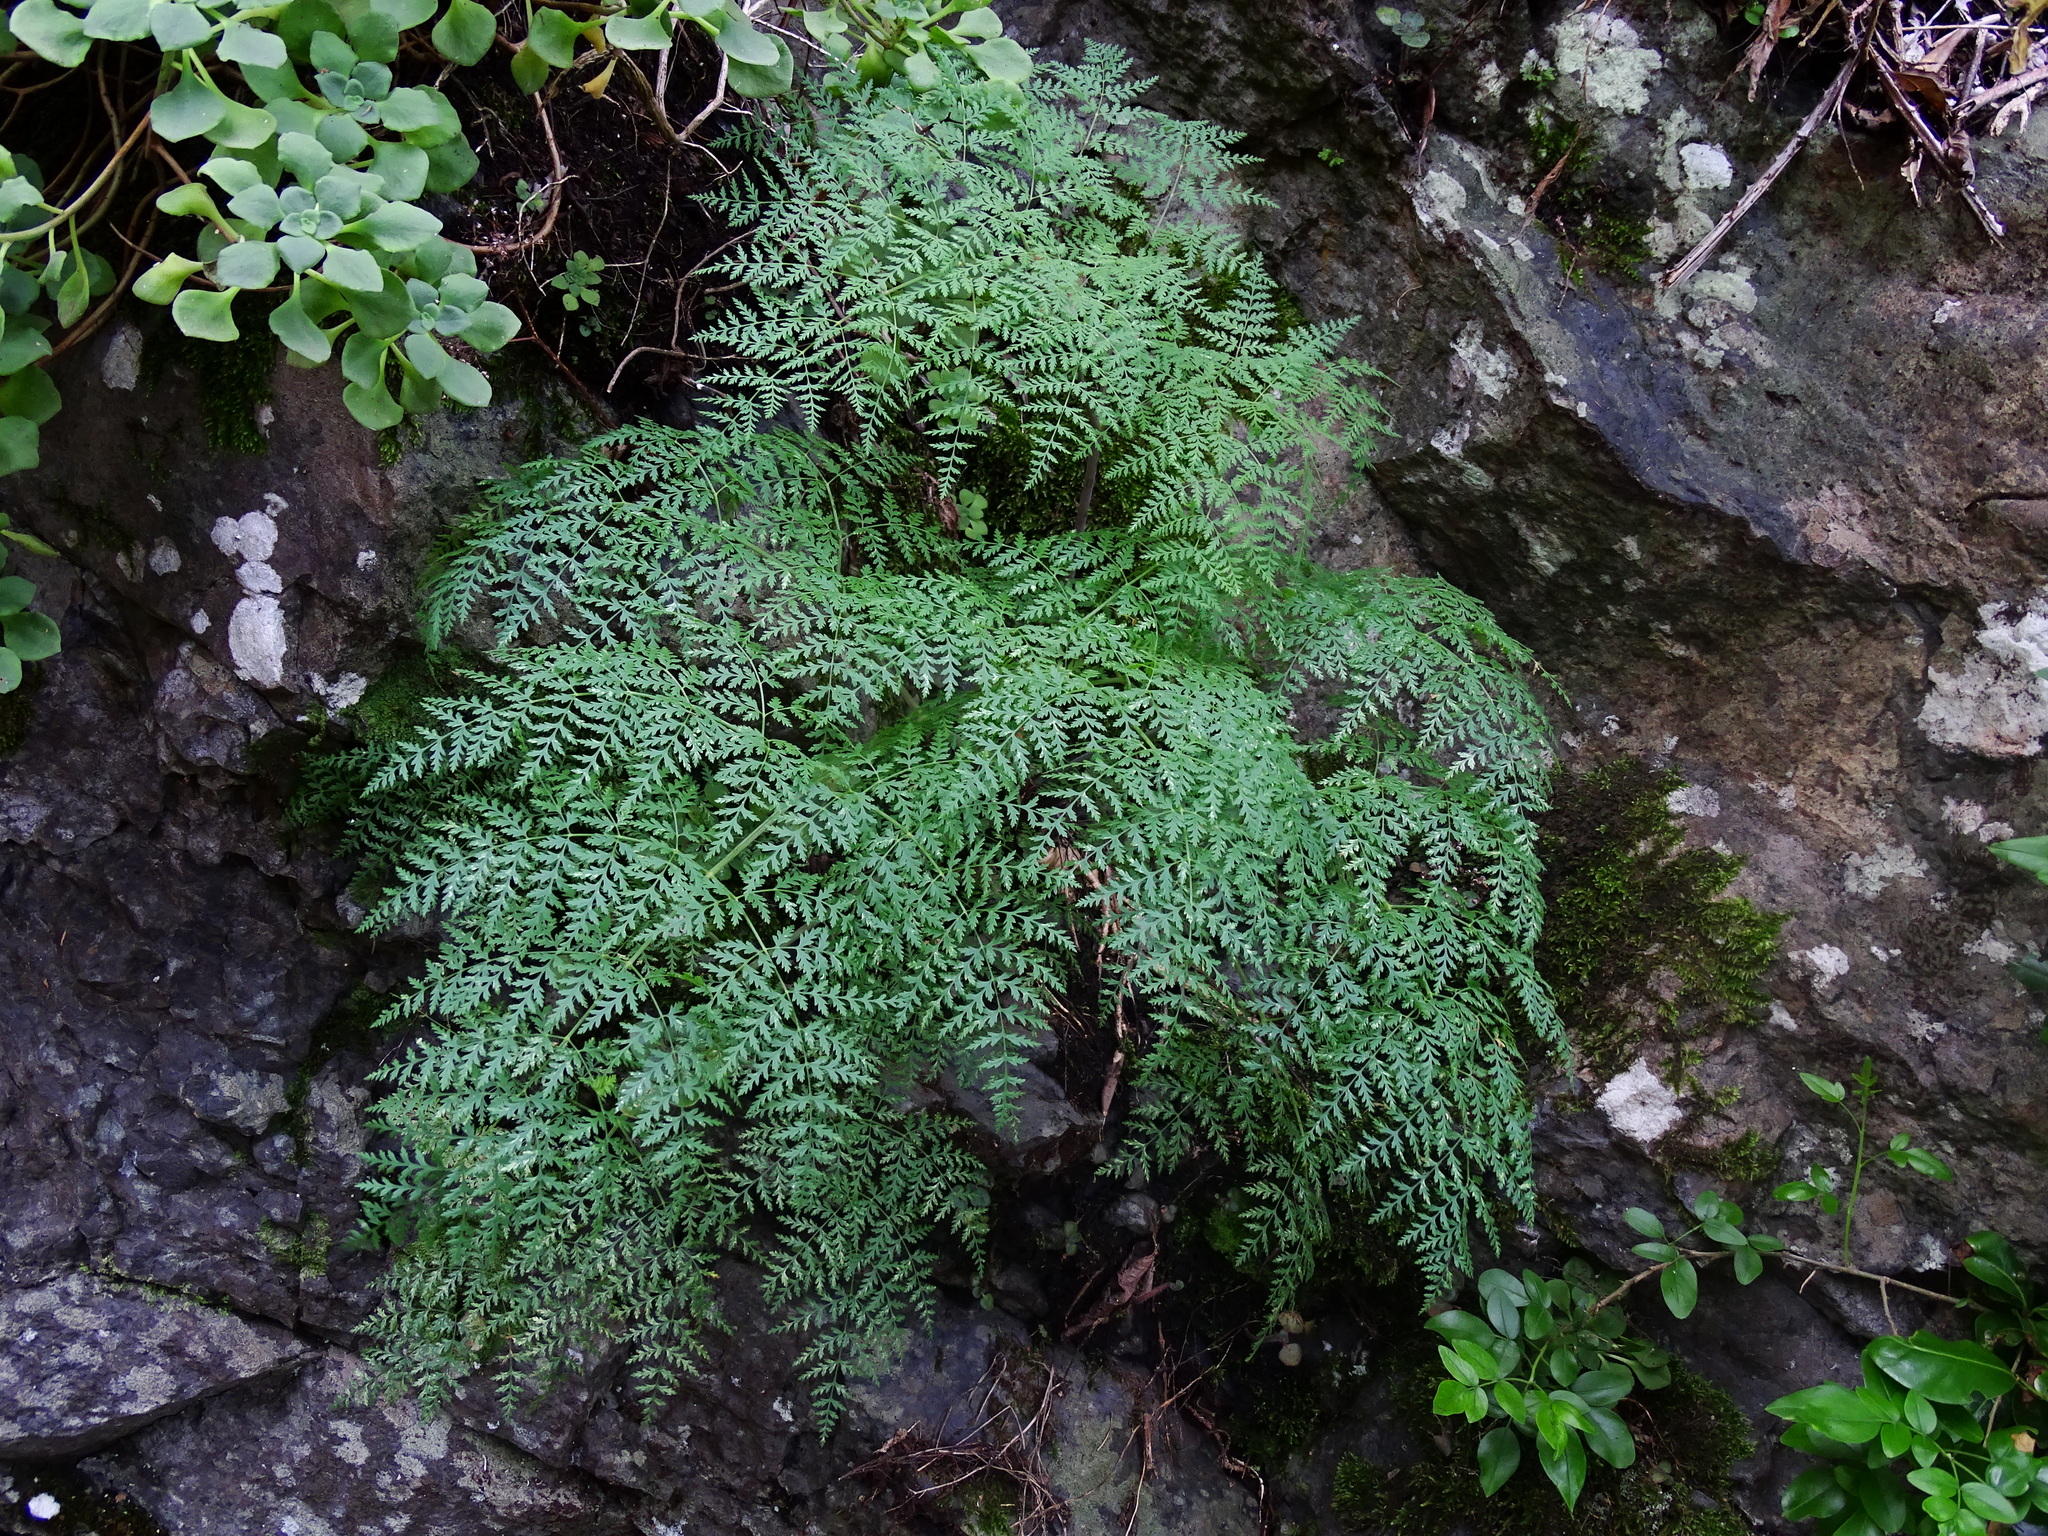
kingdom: Plantae
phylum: Tracheophyta
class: Magnoliopsida
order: Apiales
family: Apiaceae
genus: Todaroa
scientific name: Todaroa aurea
